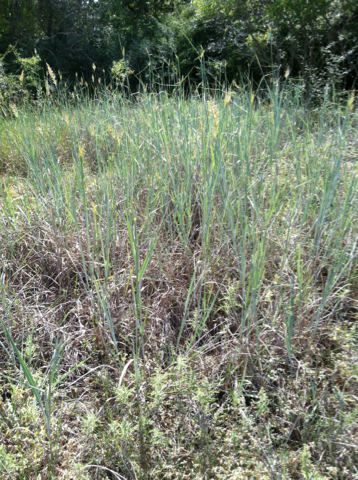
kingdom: Plantae
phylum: Tracheophyta
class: Liliopsida
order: Poales
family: Poaceae
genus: Sorghastrum
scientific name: Sorghastrum nutans
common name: Indian grass
